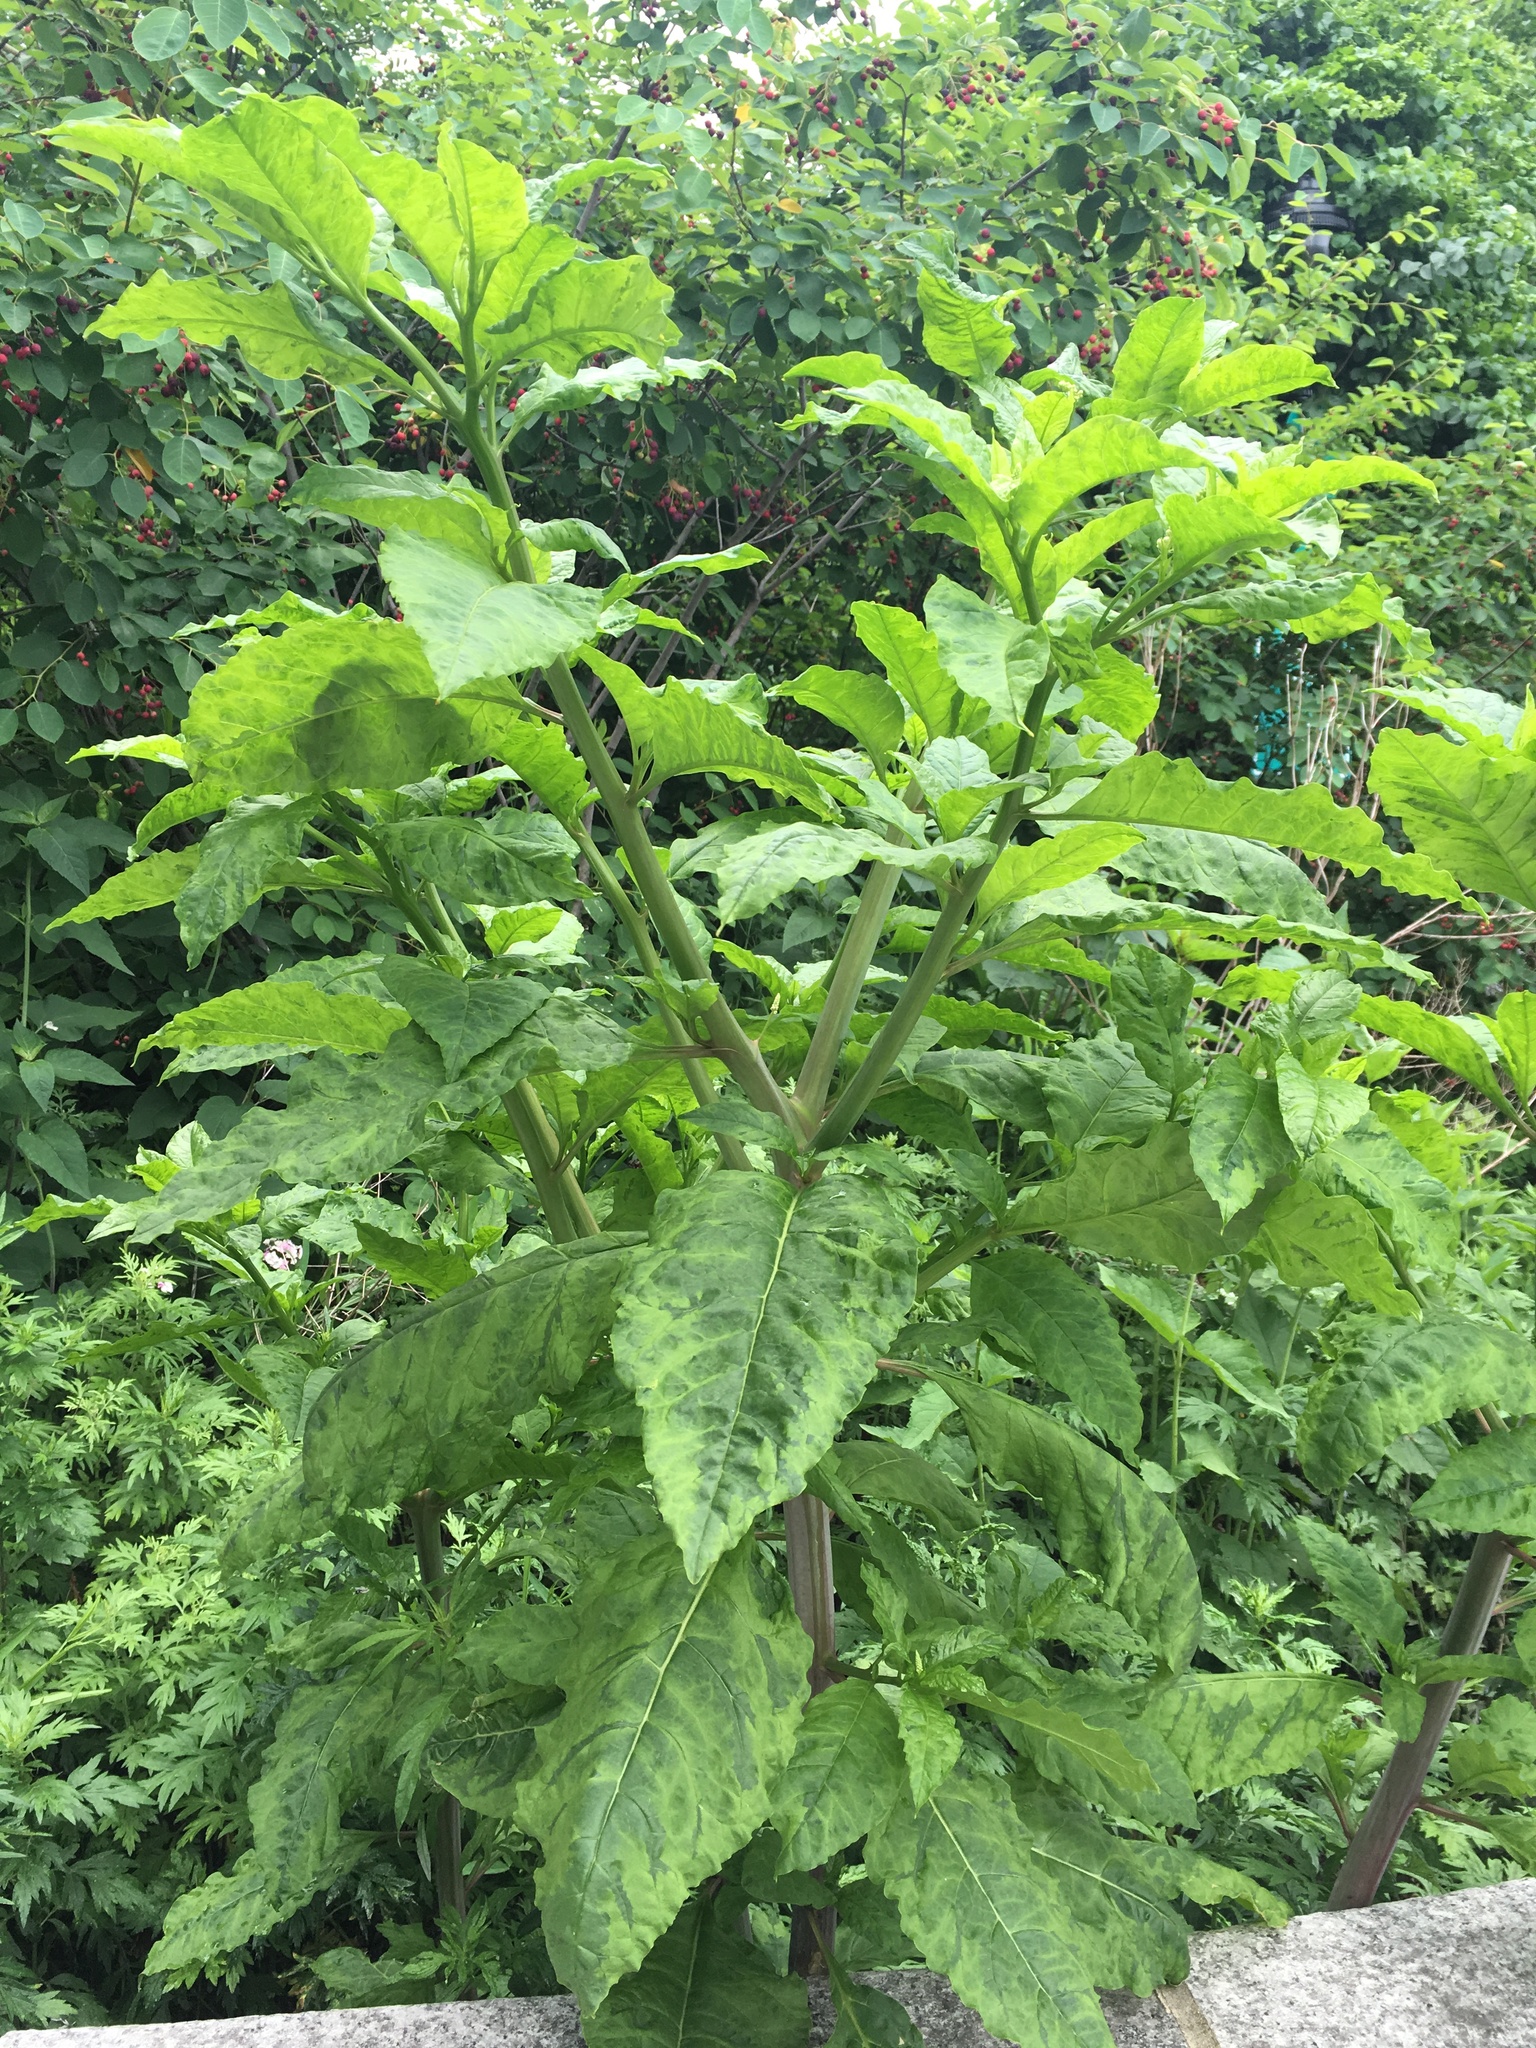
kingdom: Plantae
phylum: Tracheophyta
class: Magnoliopsida
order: Caryophyllales
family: Phytolaccaceae
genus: Phytolacca
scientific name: Phytolacca americana
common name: American pokeweed
